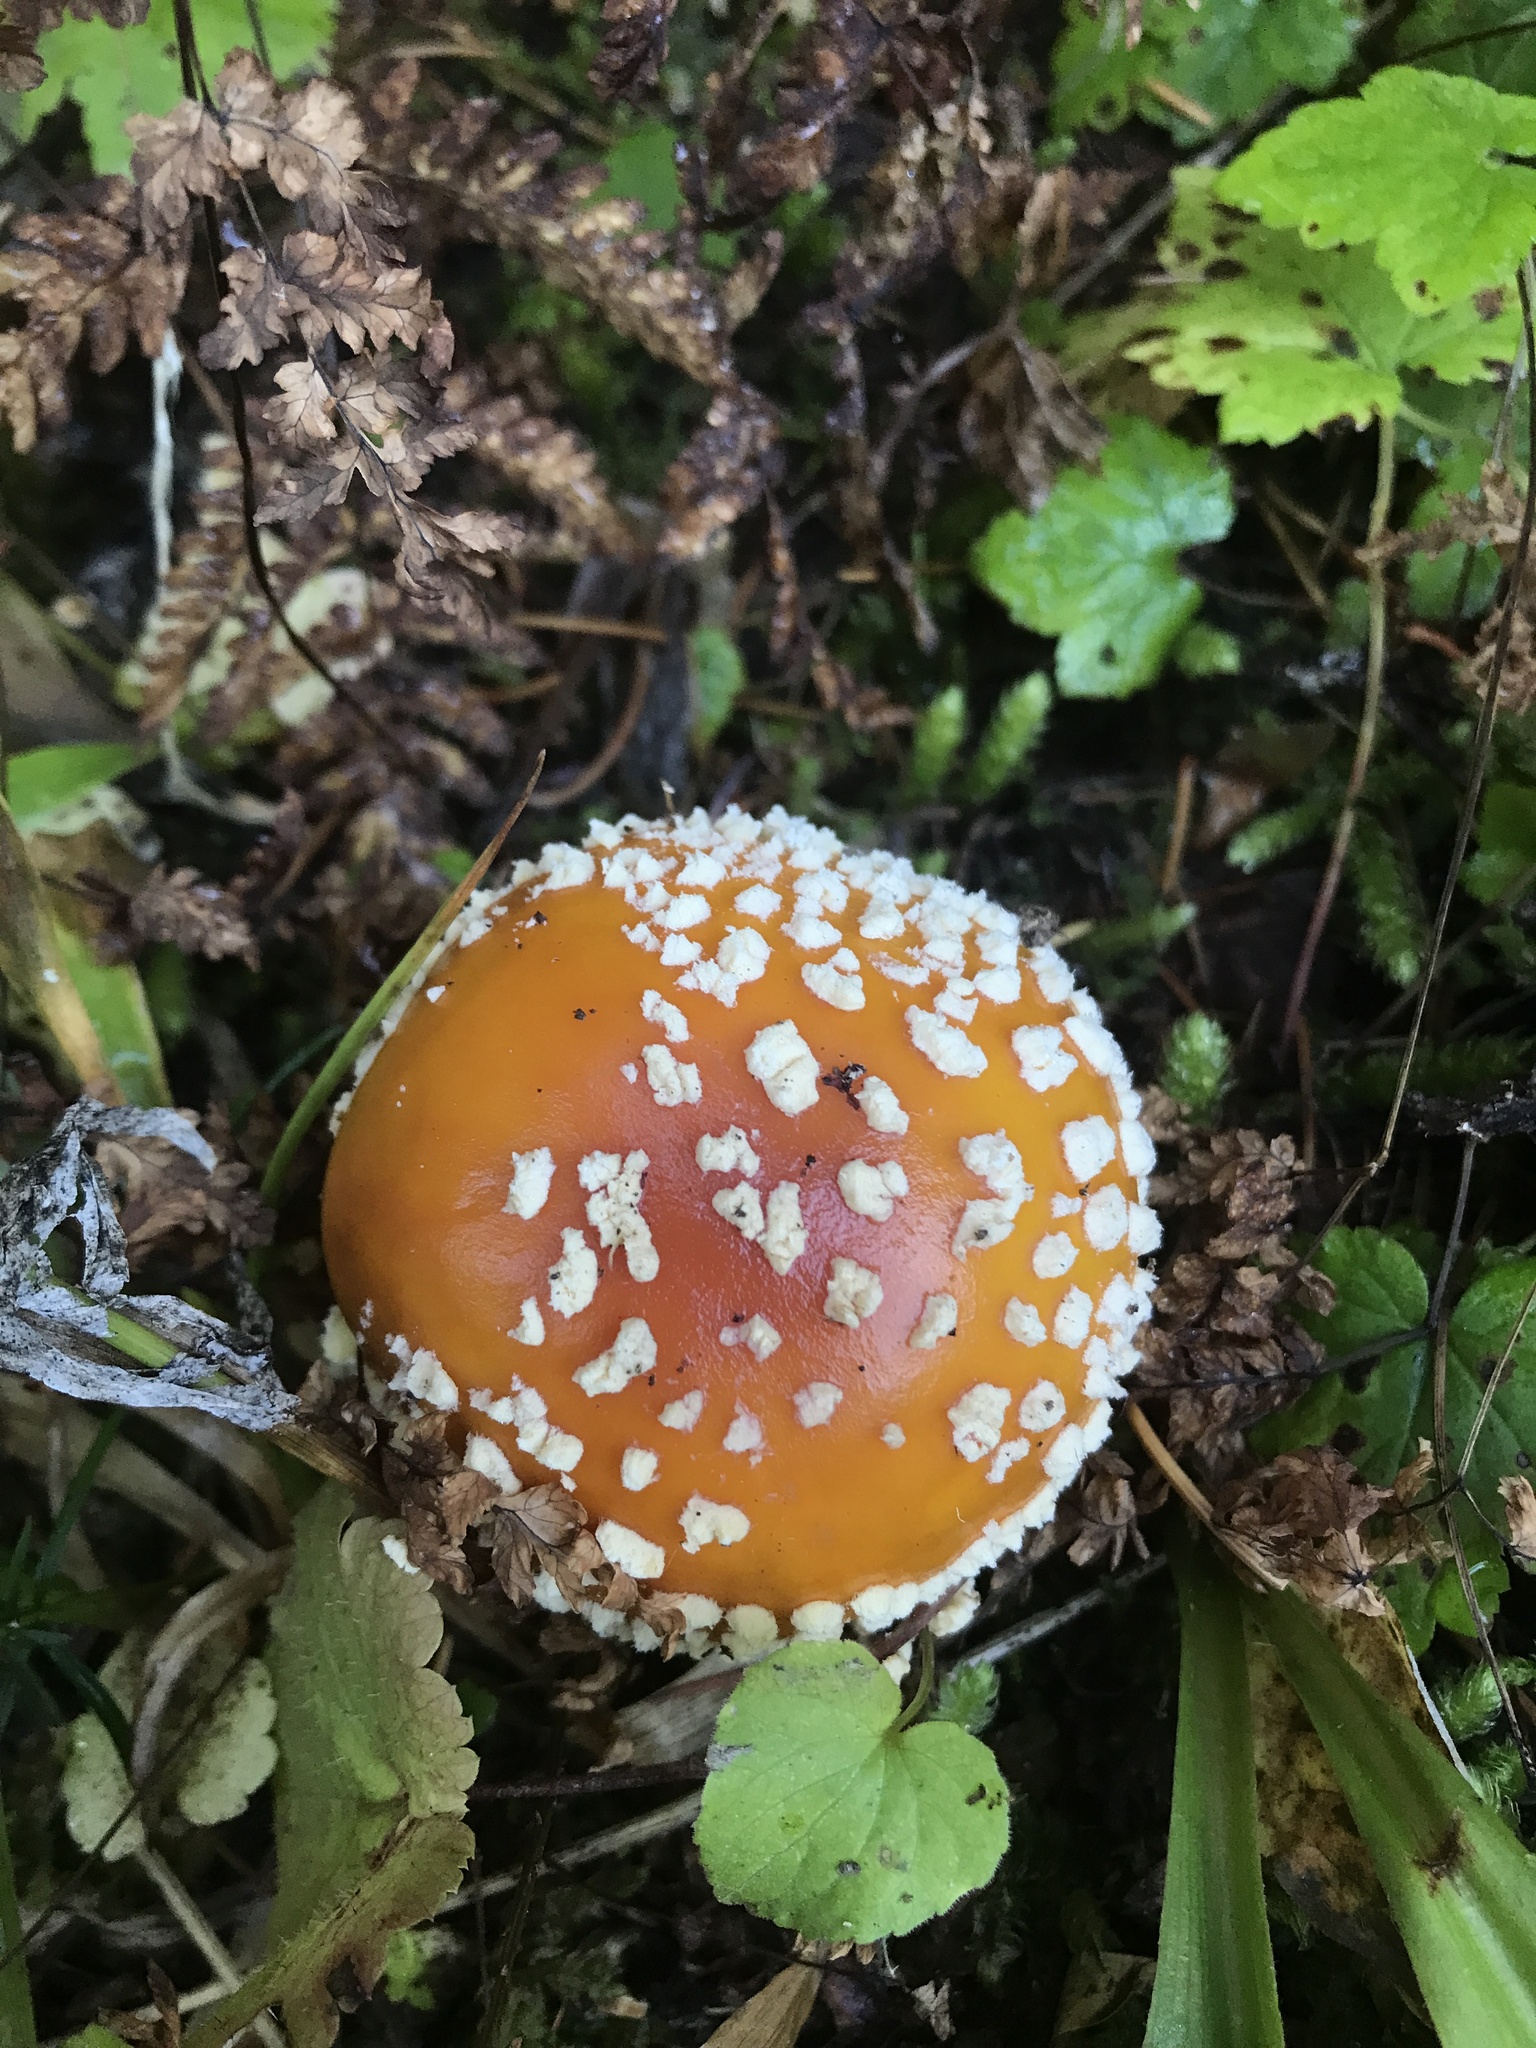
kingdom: Fungi
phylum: Basidiomycota
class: Agaricomycetes
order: Agaricales
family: Amanitaceae
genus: Amanita
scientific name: Amanita muscaria
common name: Fly agaric
